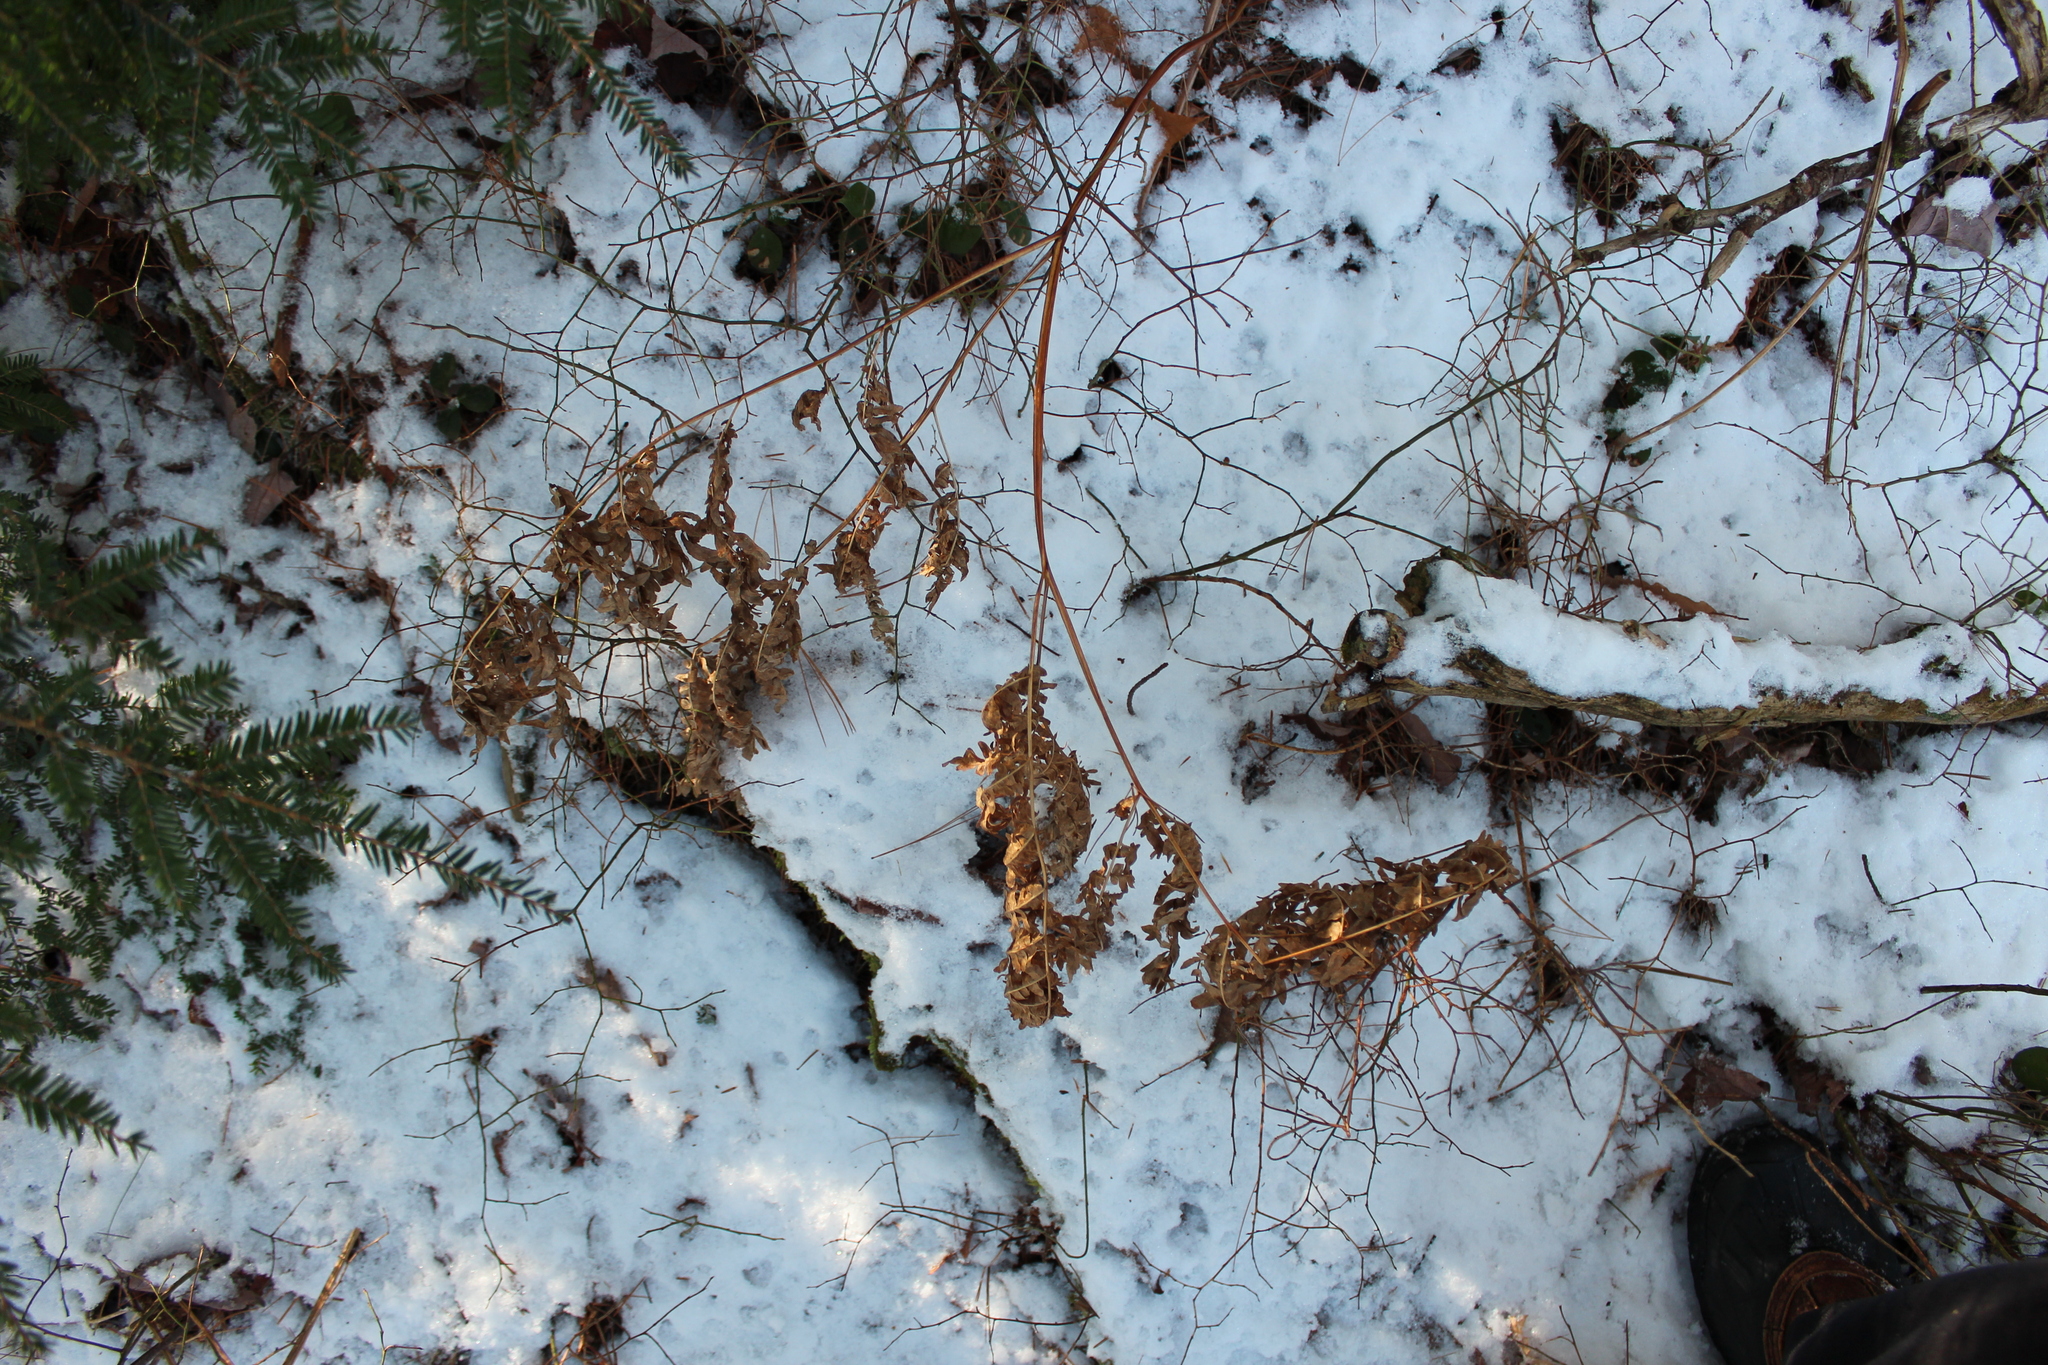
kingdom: Plantae
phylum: Tracheophyta
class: Polypodiopsida
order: Polypodiales
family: Dennstaedtiaceae
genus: Pteridium
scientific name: Pteridium aquilinum
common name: Bracken
